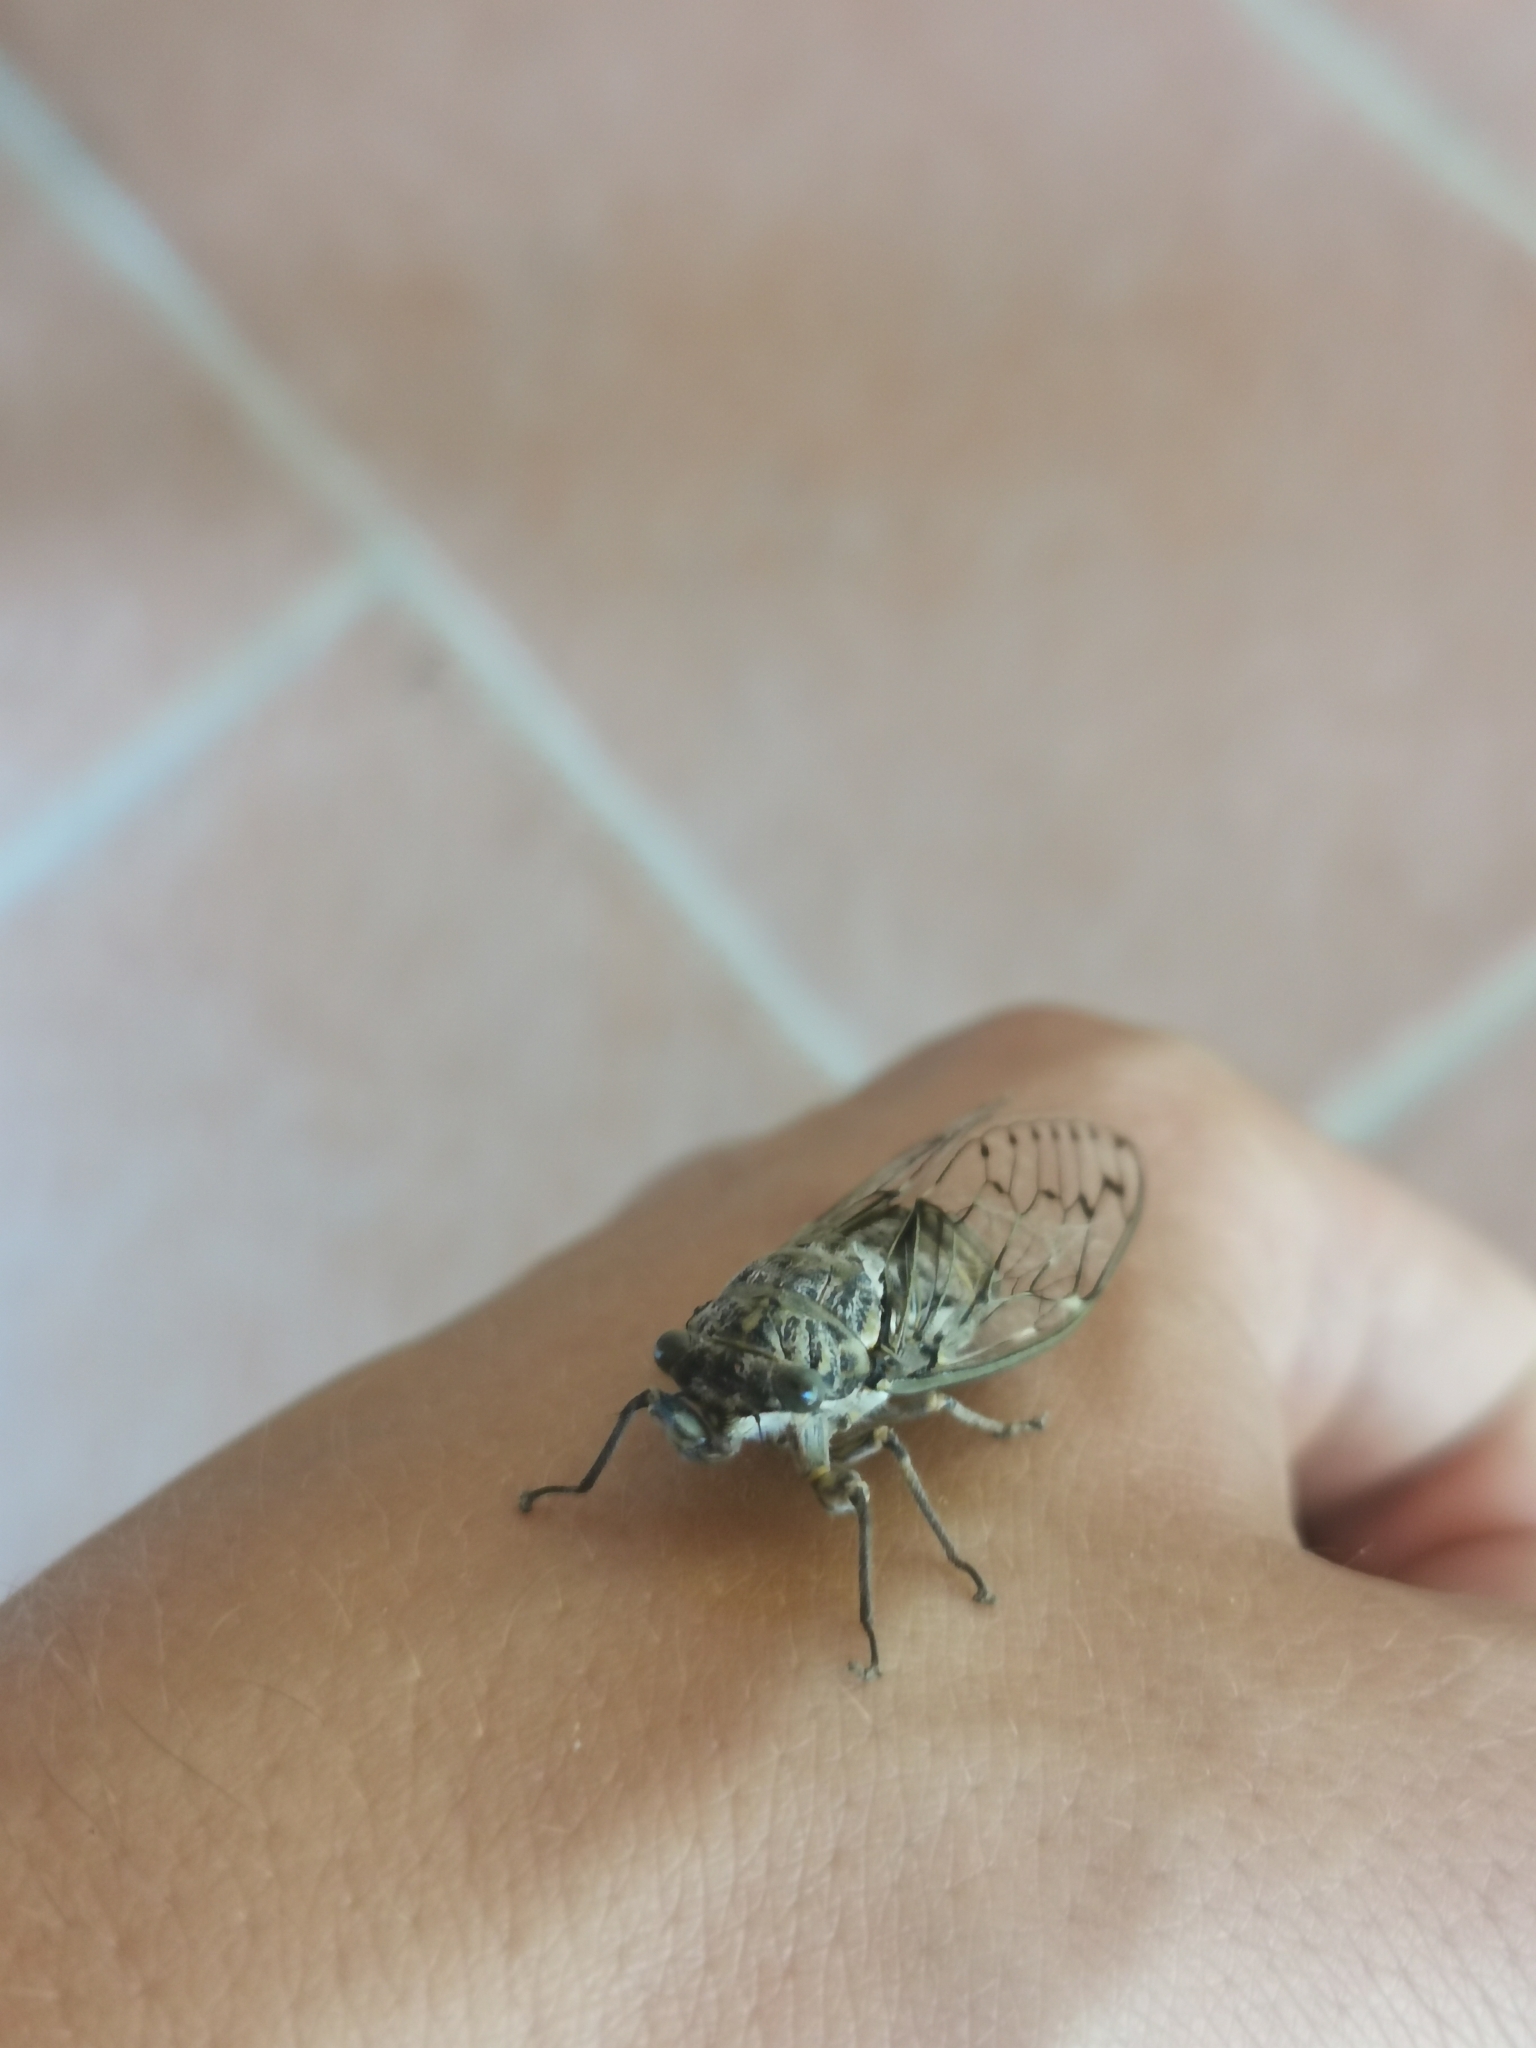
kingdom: Animalia
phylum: Arthropoda
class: Insecta
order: Hemiptera
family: Cicadidae
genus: Cicada
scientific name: Cicada orni
